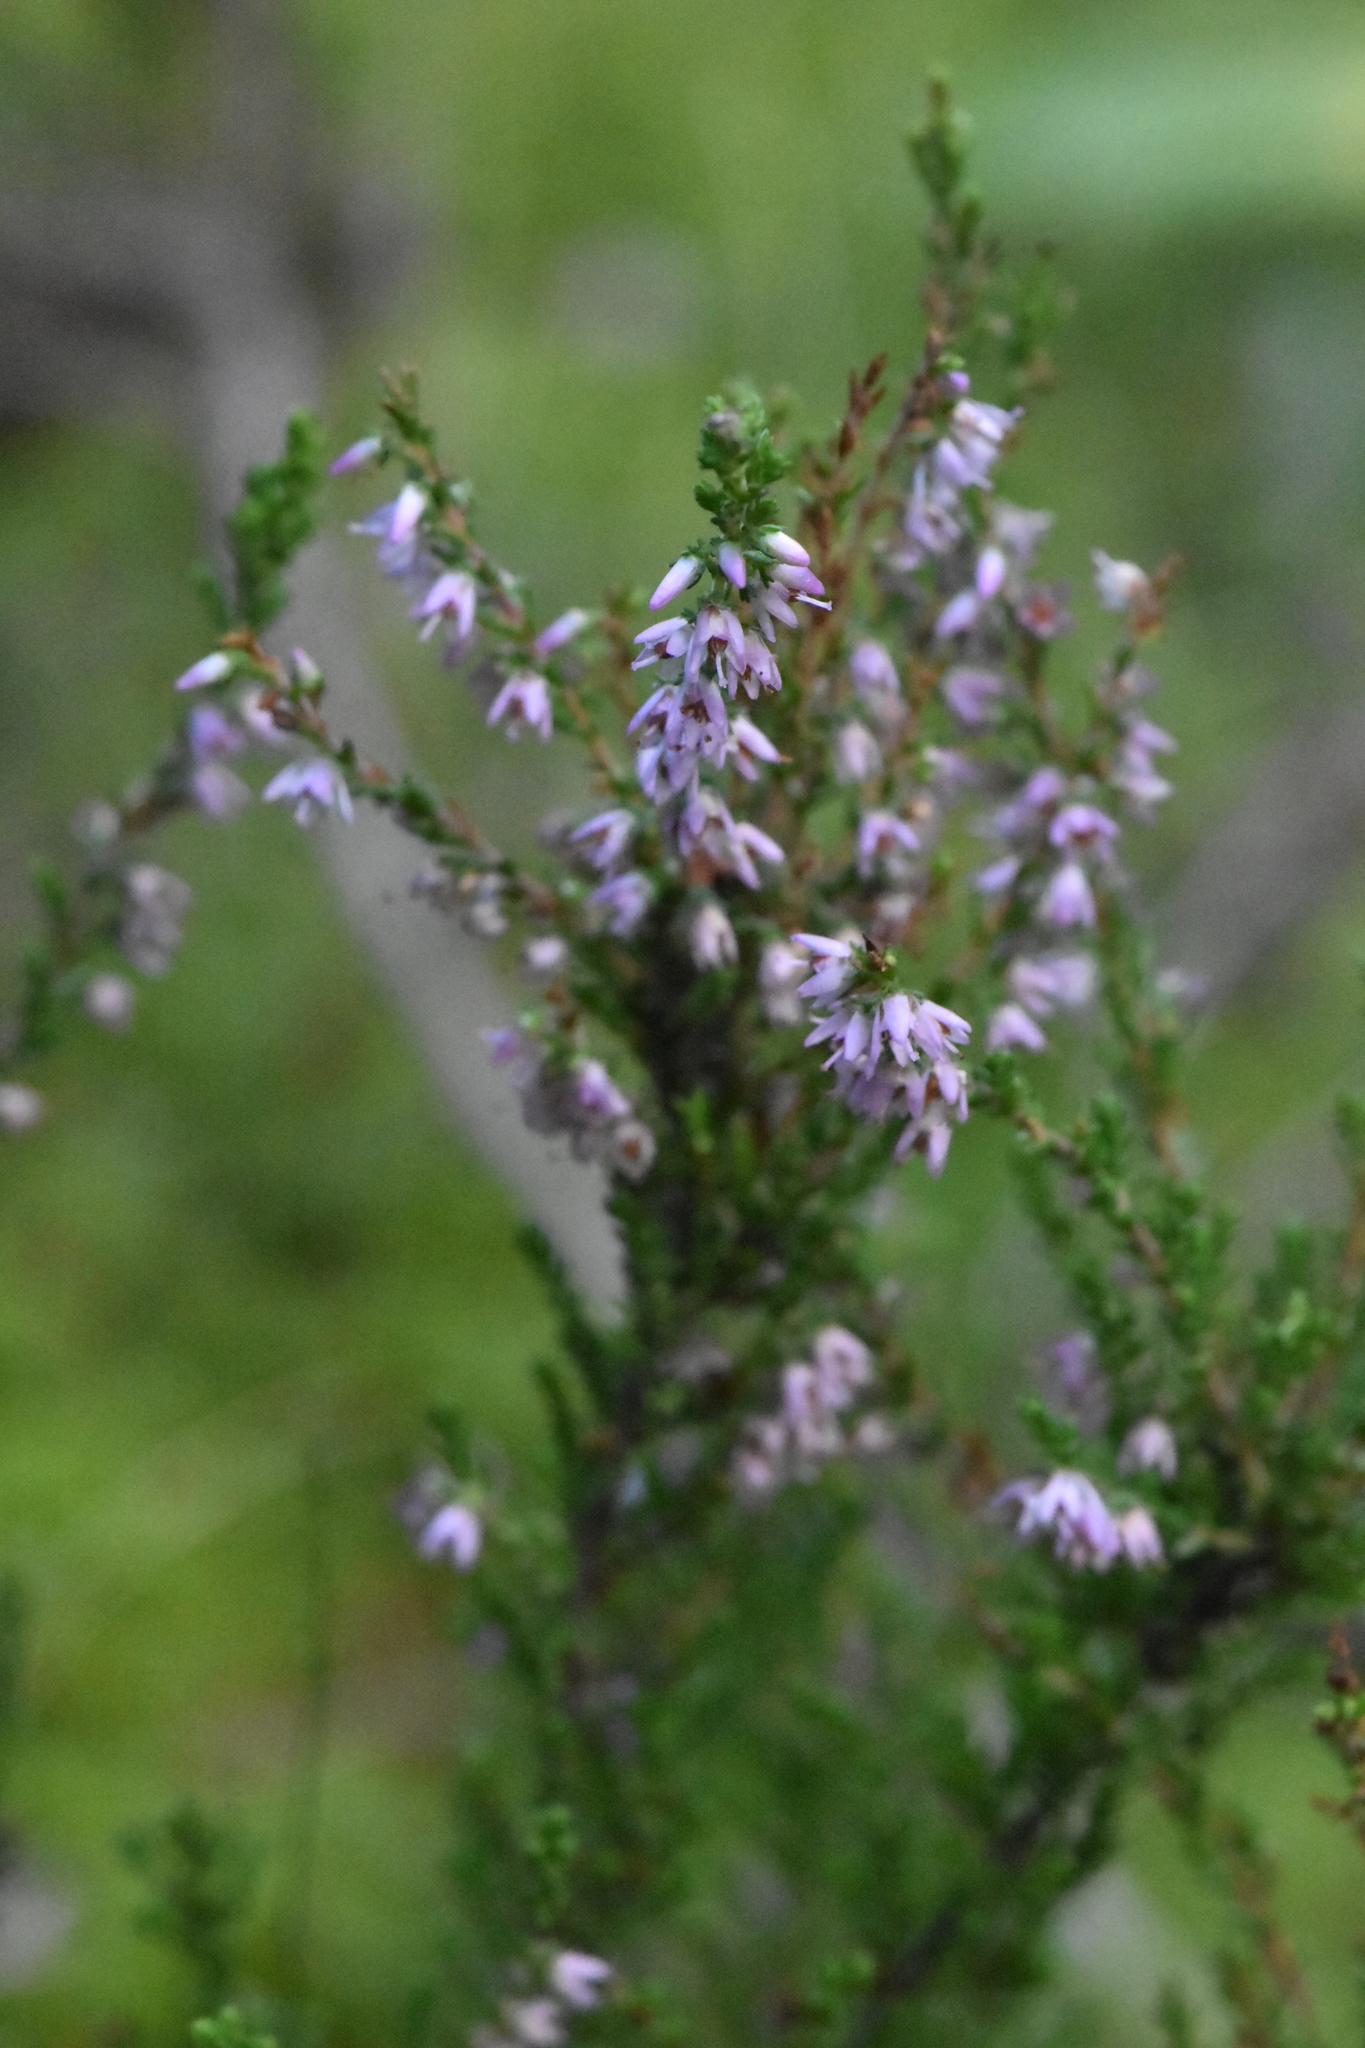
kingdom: Plantae
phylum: Tracheophyta
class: Magnoliopsida
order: Ericales
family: Ericaceae
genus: Calluna
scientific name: Calluna vulgaris
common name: Heather
